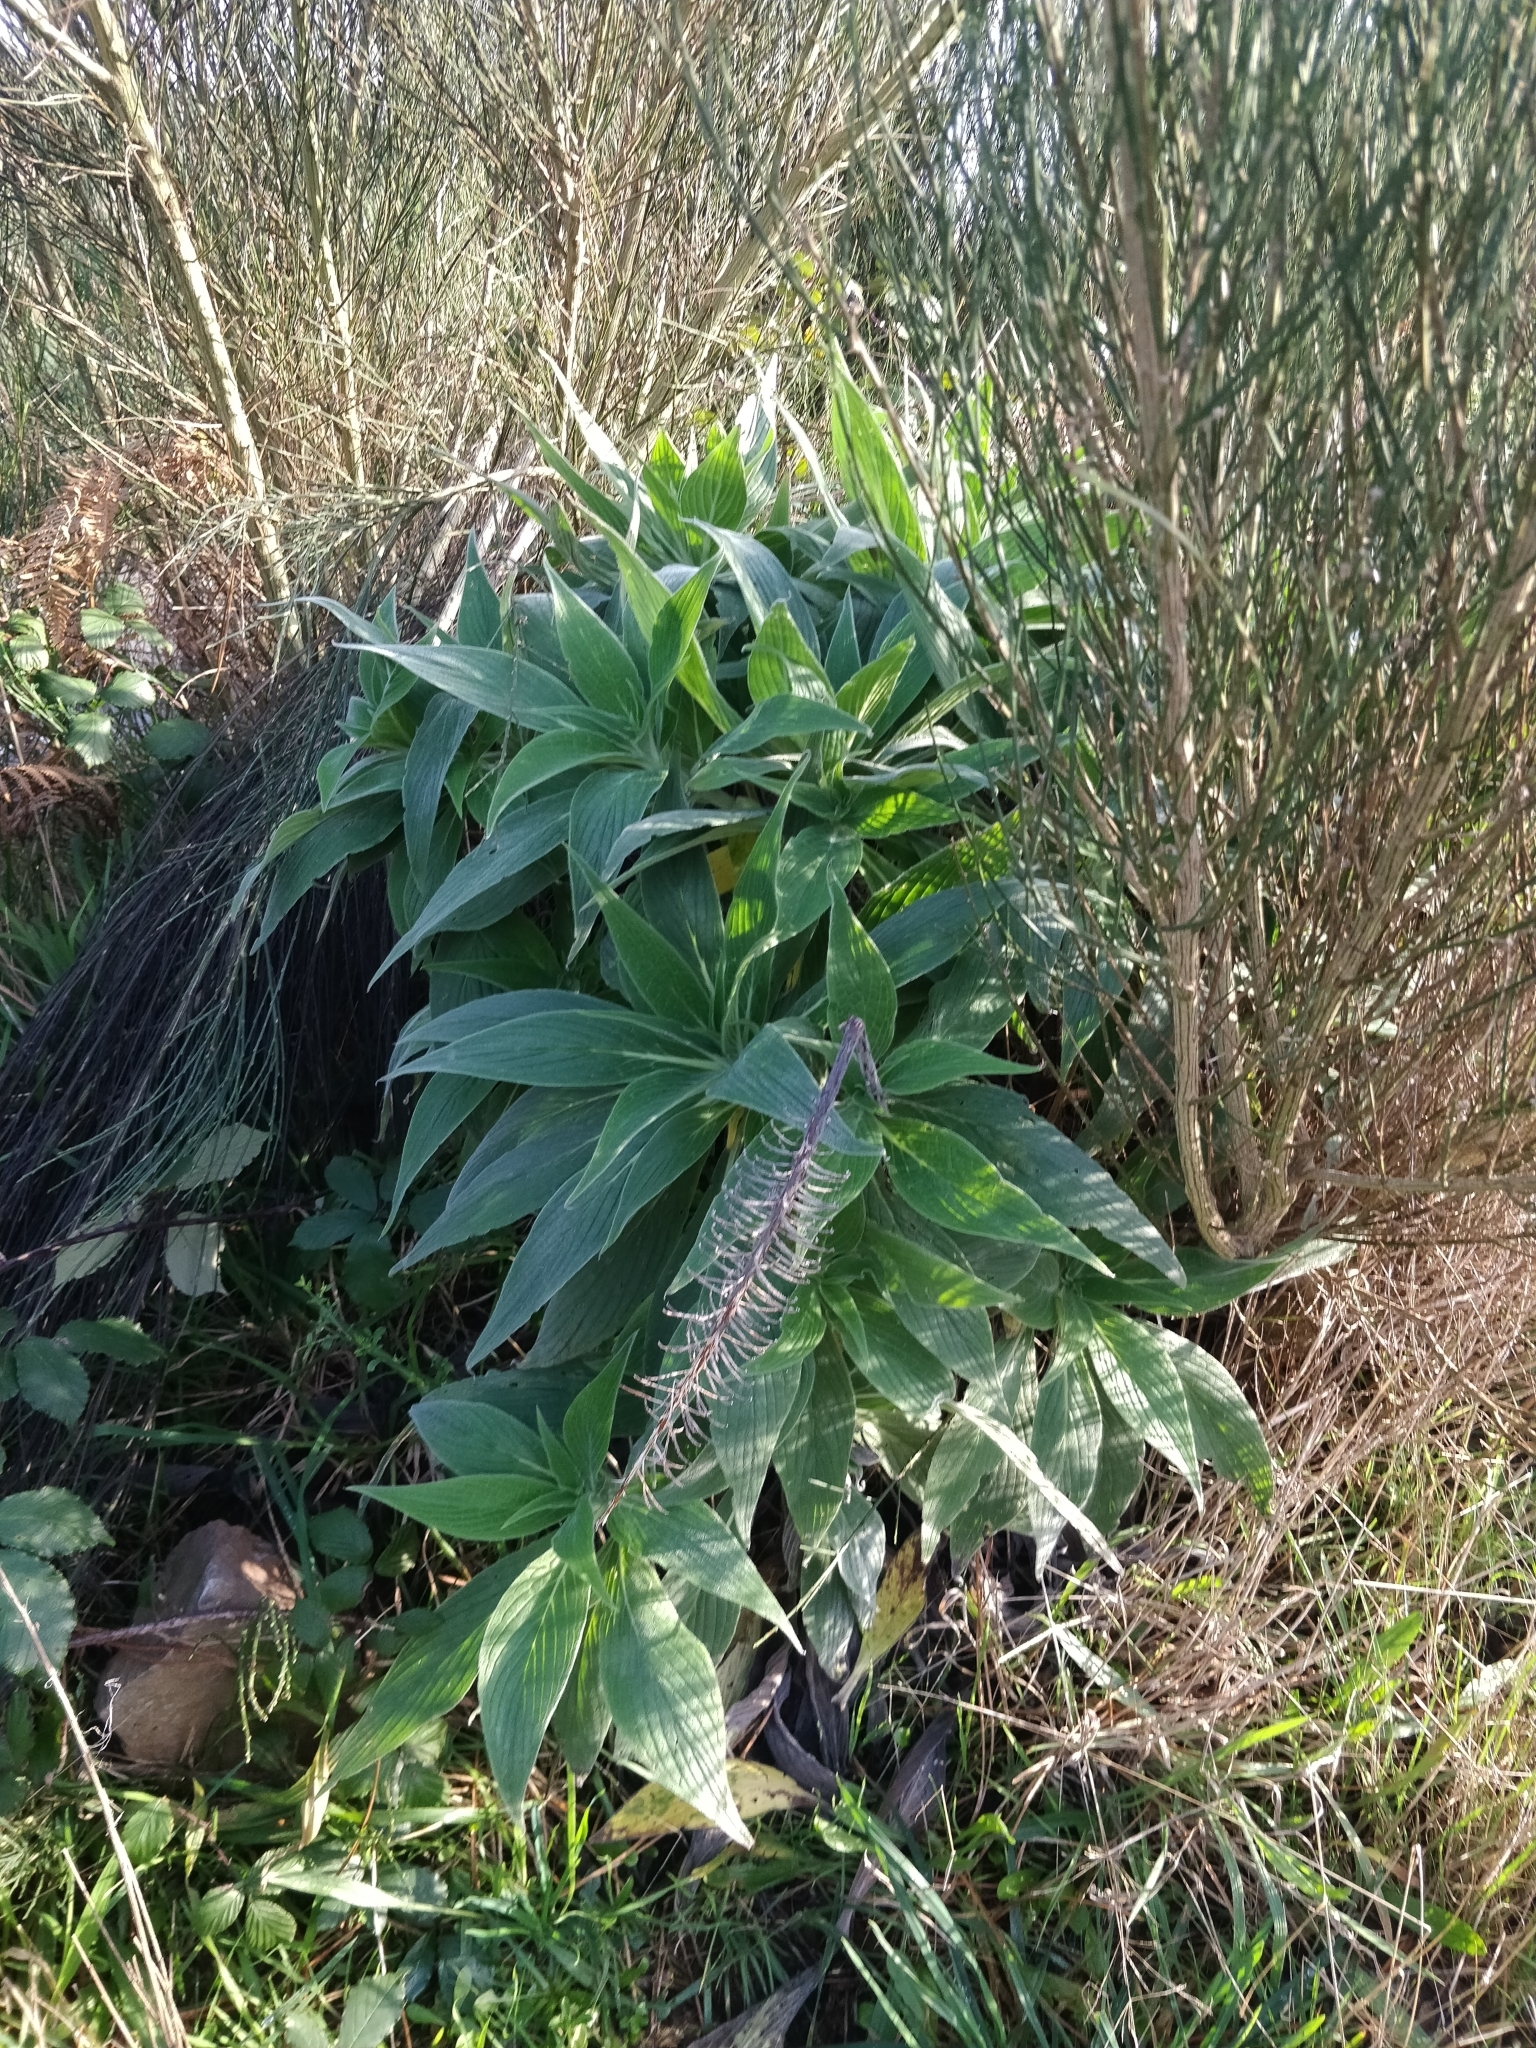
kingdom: Plantae
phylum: Tracheophyta
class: Magnoliopsida
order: Boraginales
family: Boraginaceae
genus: Echium
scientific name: Echium candicans
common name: Pride of madeira
